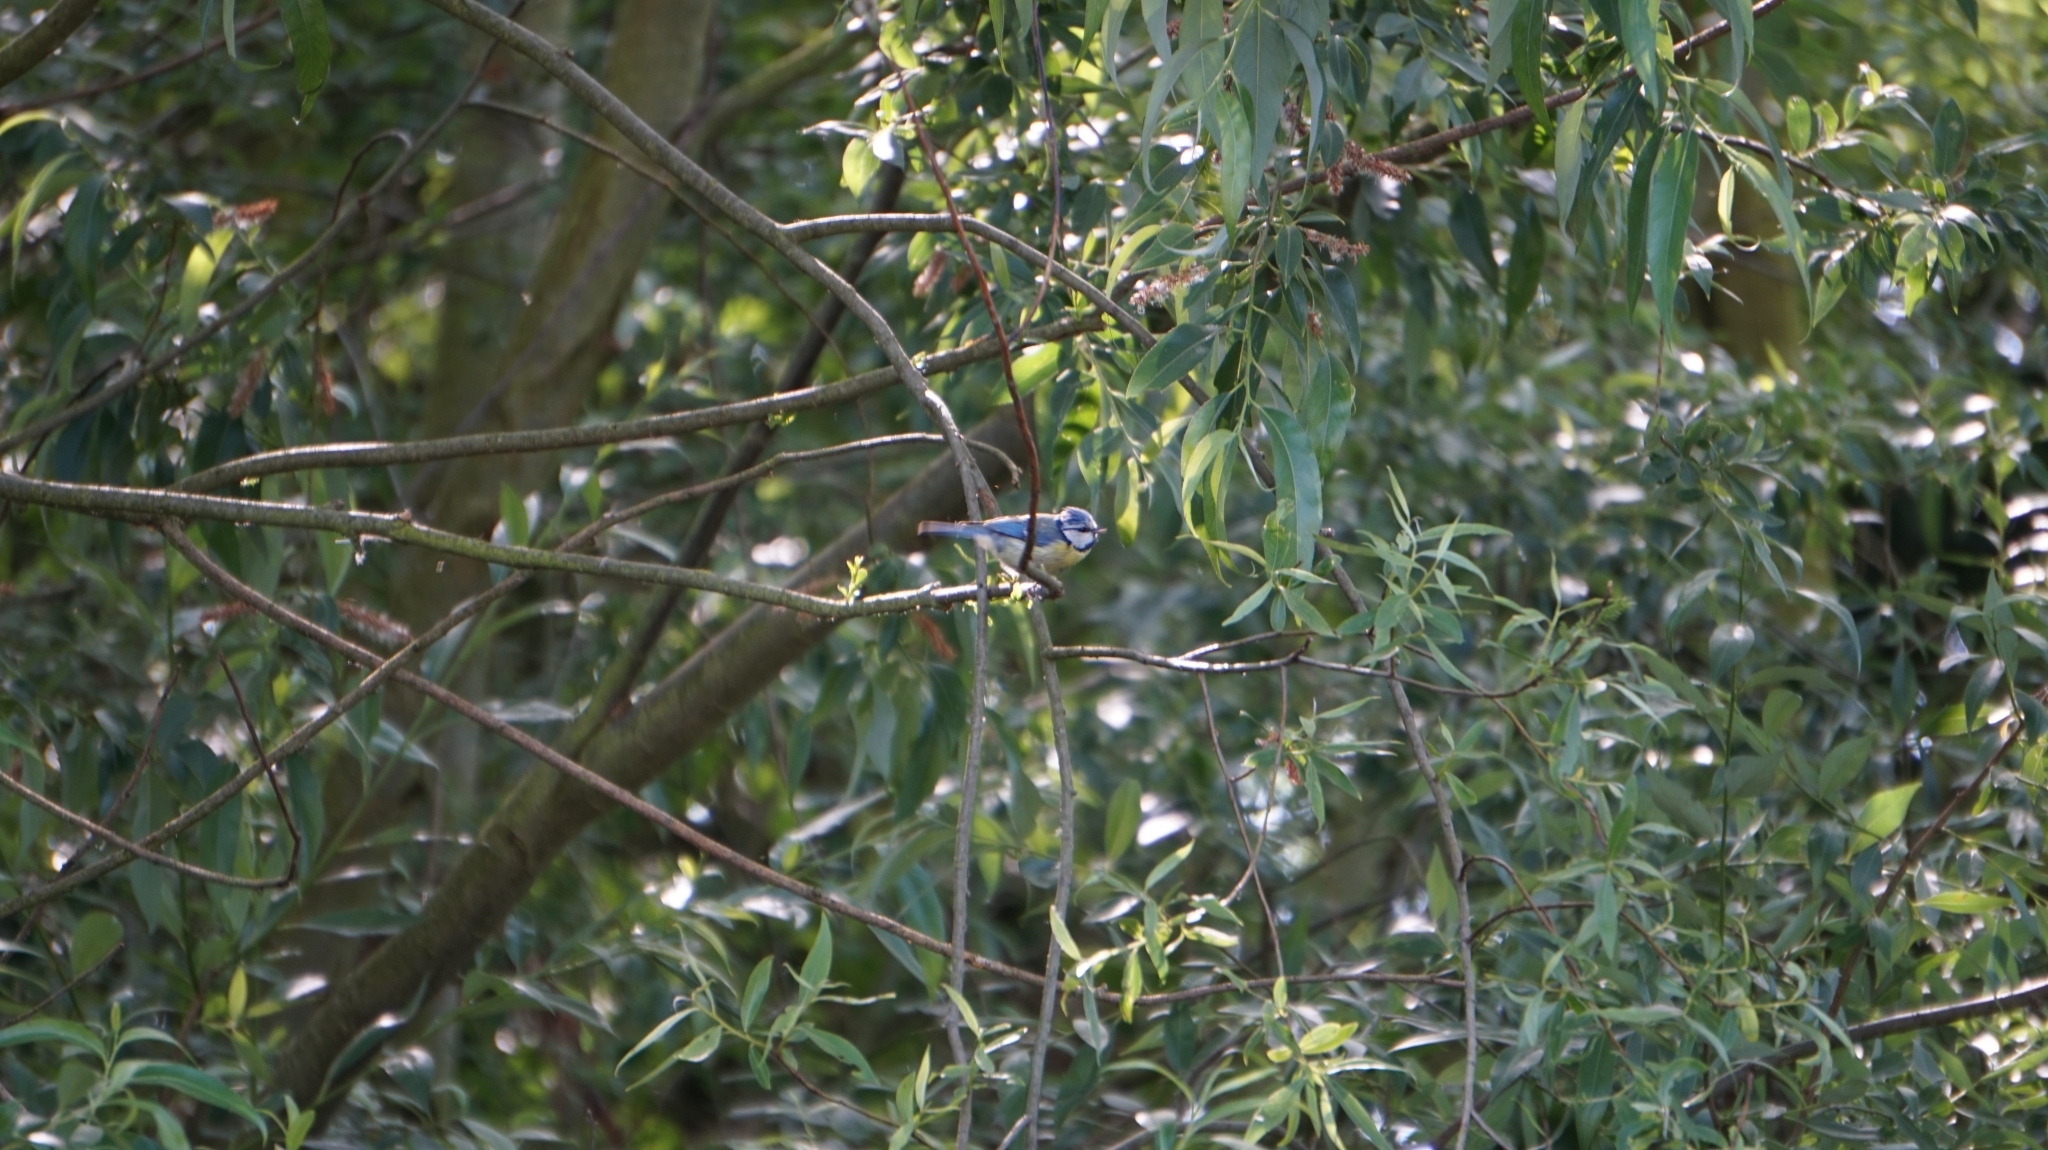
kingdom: Animalia
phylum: Chordata
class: Aves
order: Passeriformes
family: Paridae
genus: Cyanistes
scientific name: Cyanistes caeruleus
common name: Eurasian blue tit
